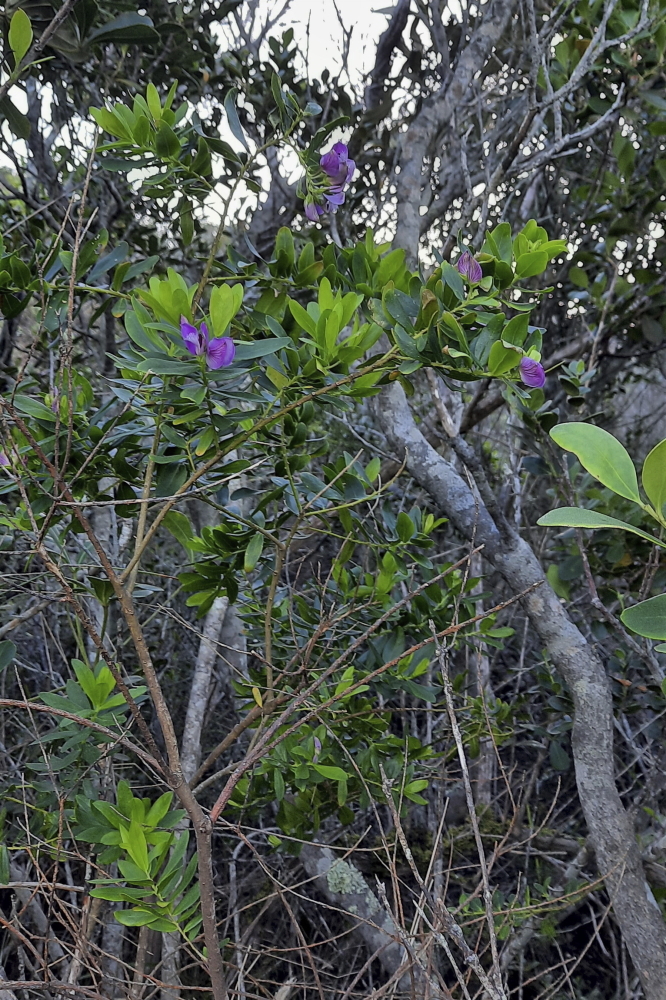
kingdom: Plantae
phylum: Tracheophyta
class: Magnoliopsida
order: Fabales
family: Polygalaceae
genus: Polygala
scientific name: Polygala myrtifolia
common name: Myrtle-leaf milkwort
